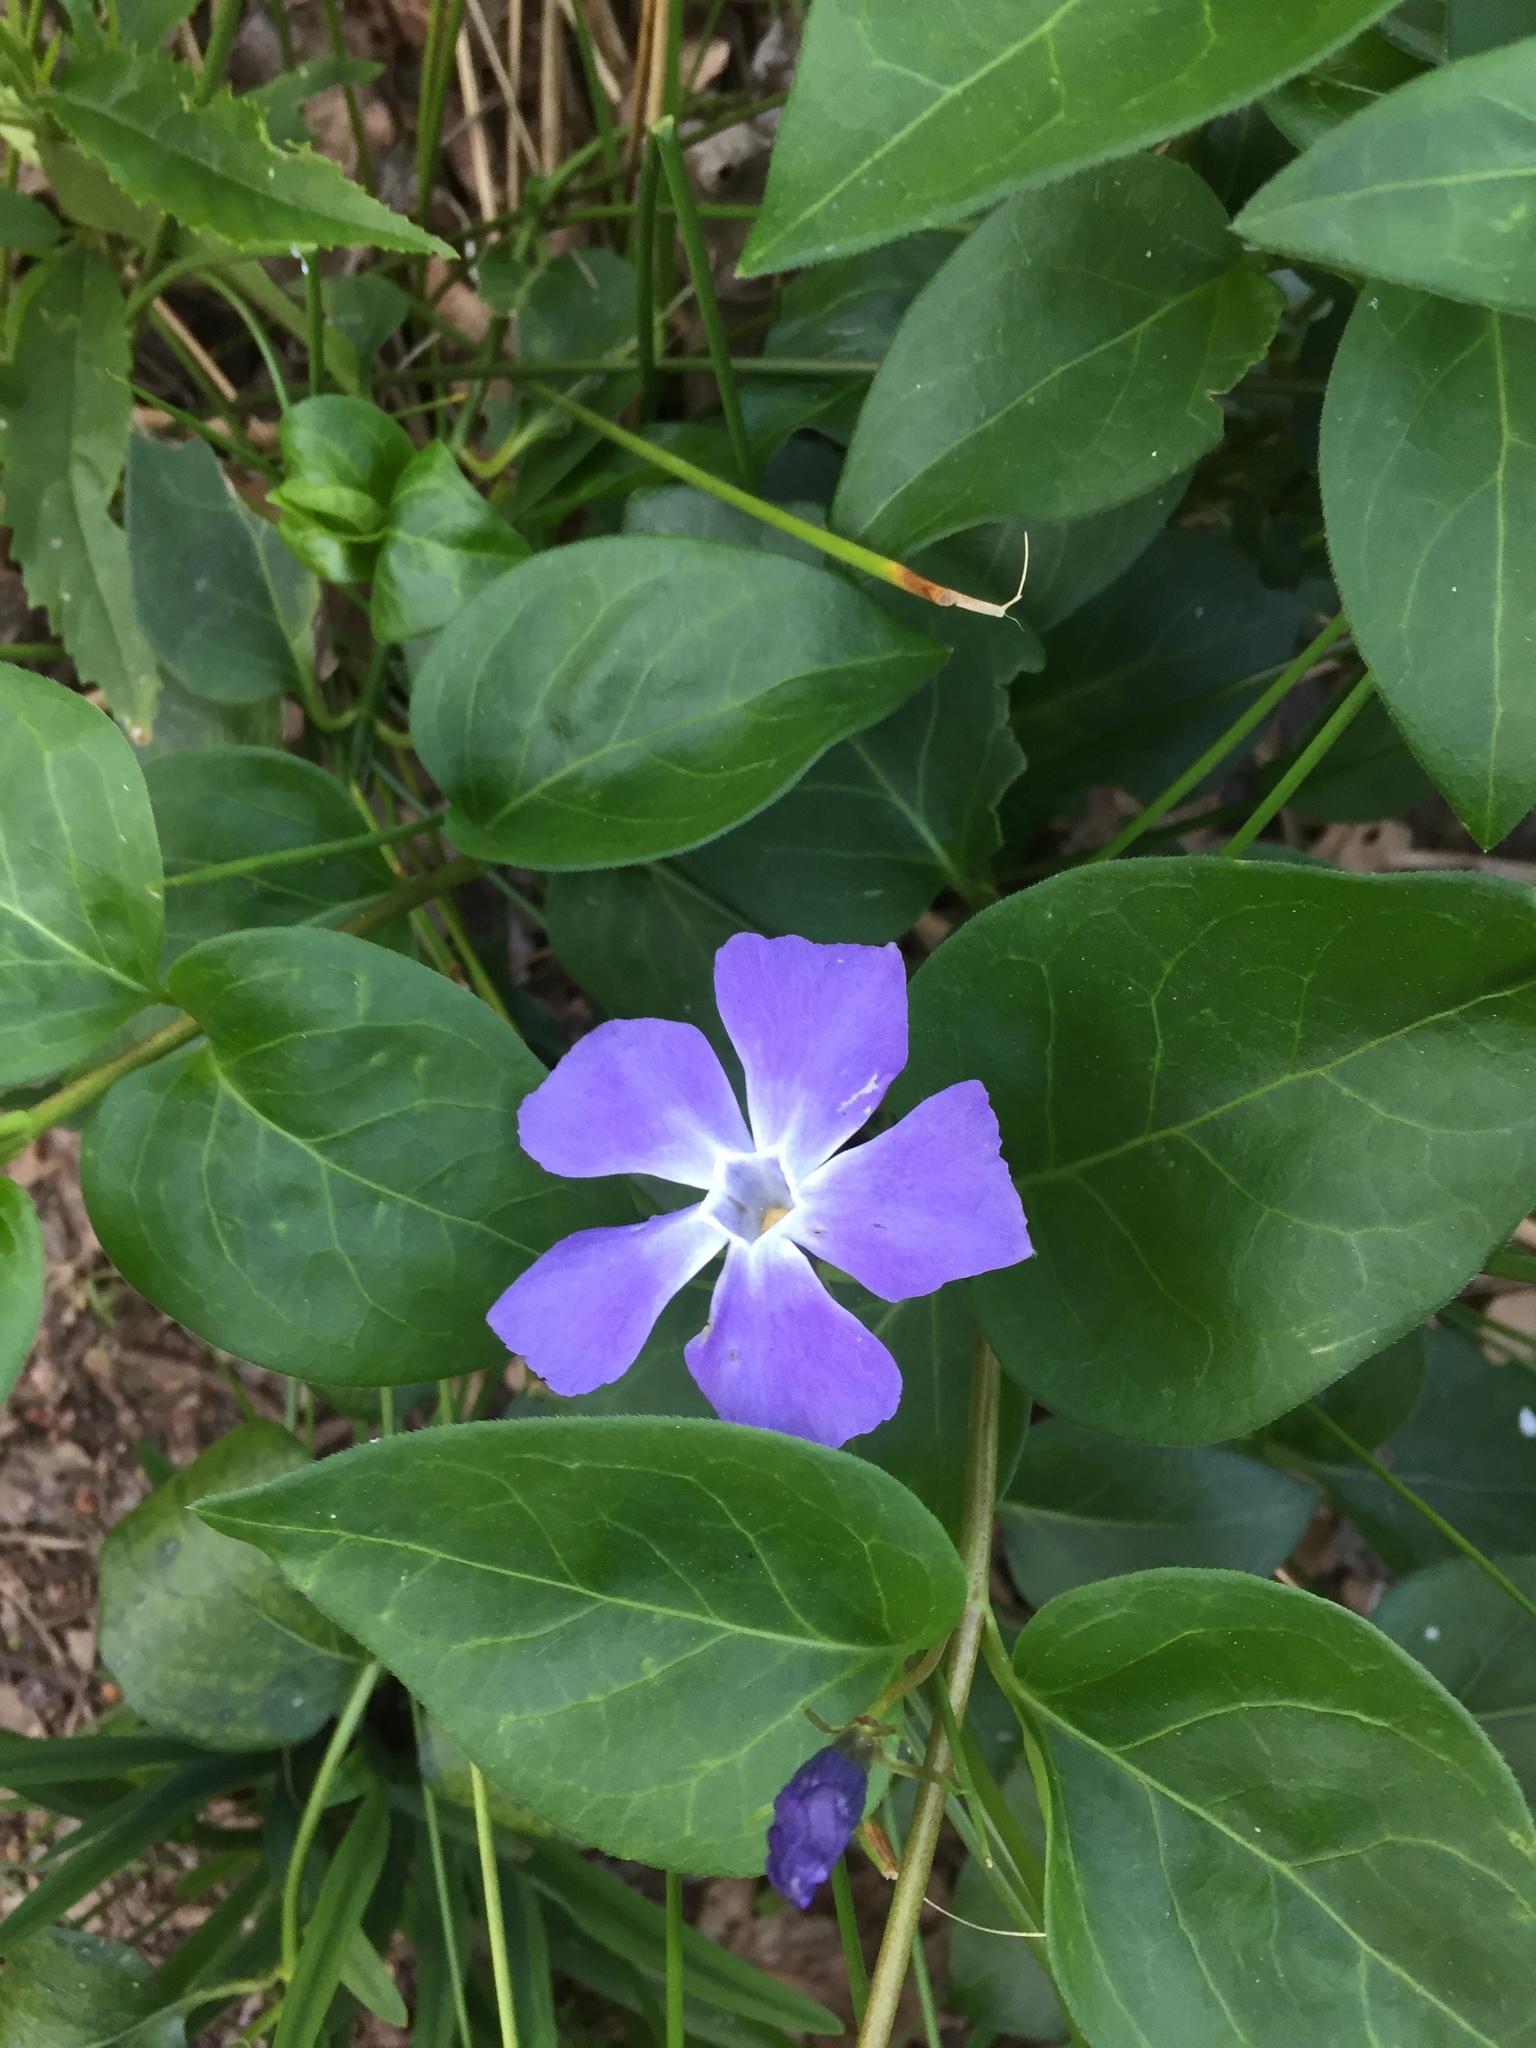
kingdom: Plantae
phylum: Tracheophyta
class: Magnoliopsida
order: Gentianales
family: Apocynaceae
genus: Vinca
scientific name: Vinca major
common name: Greater periwinkle
